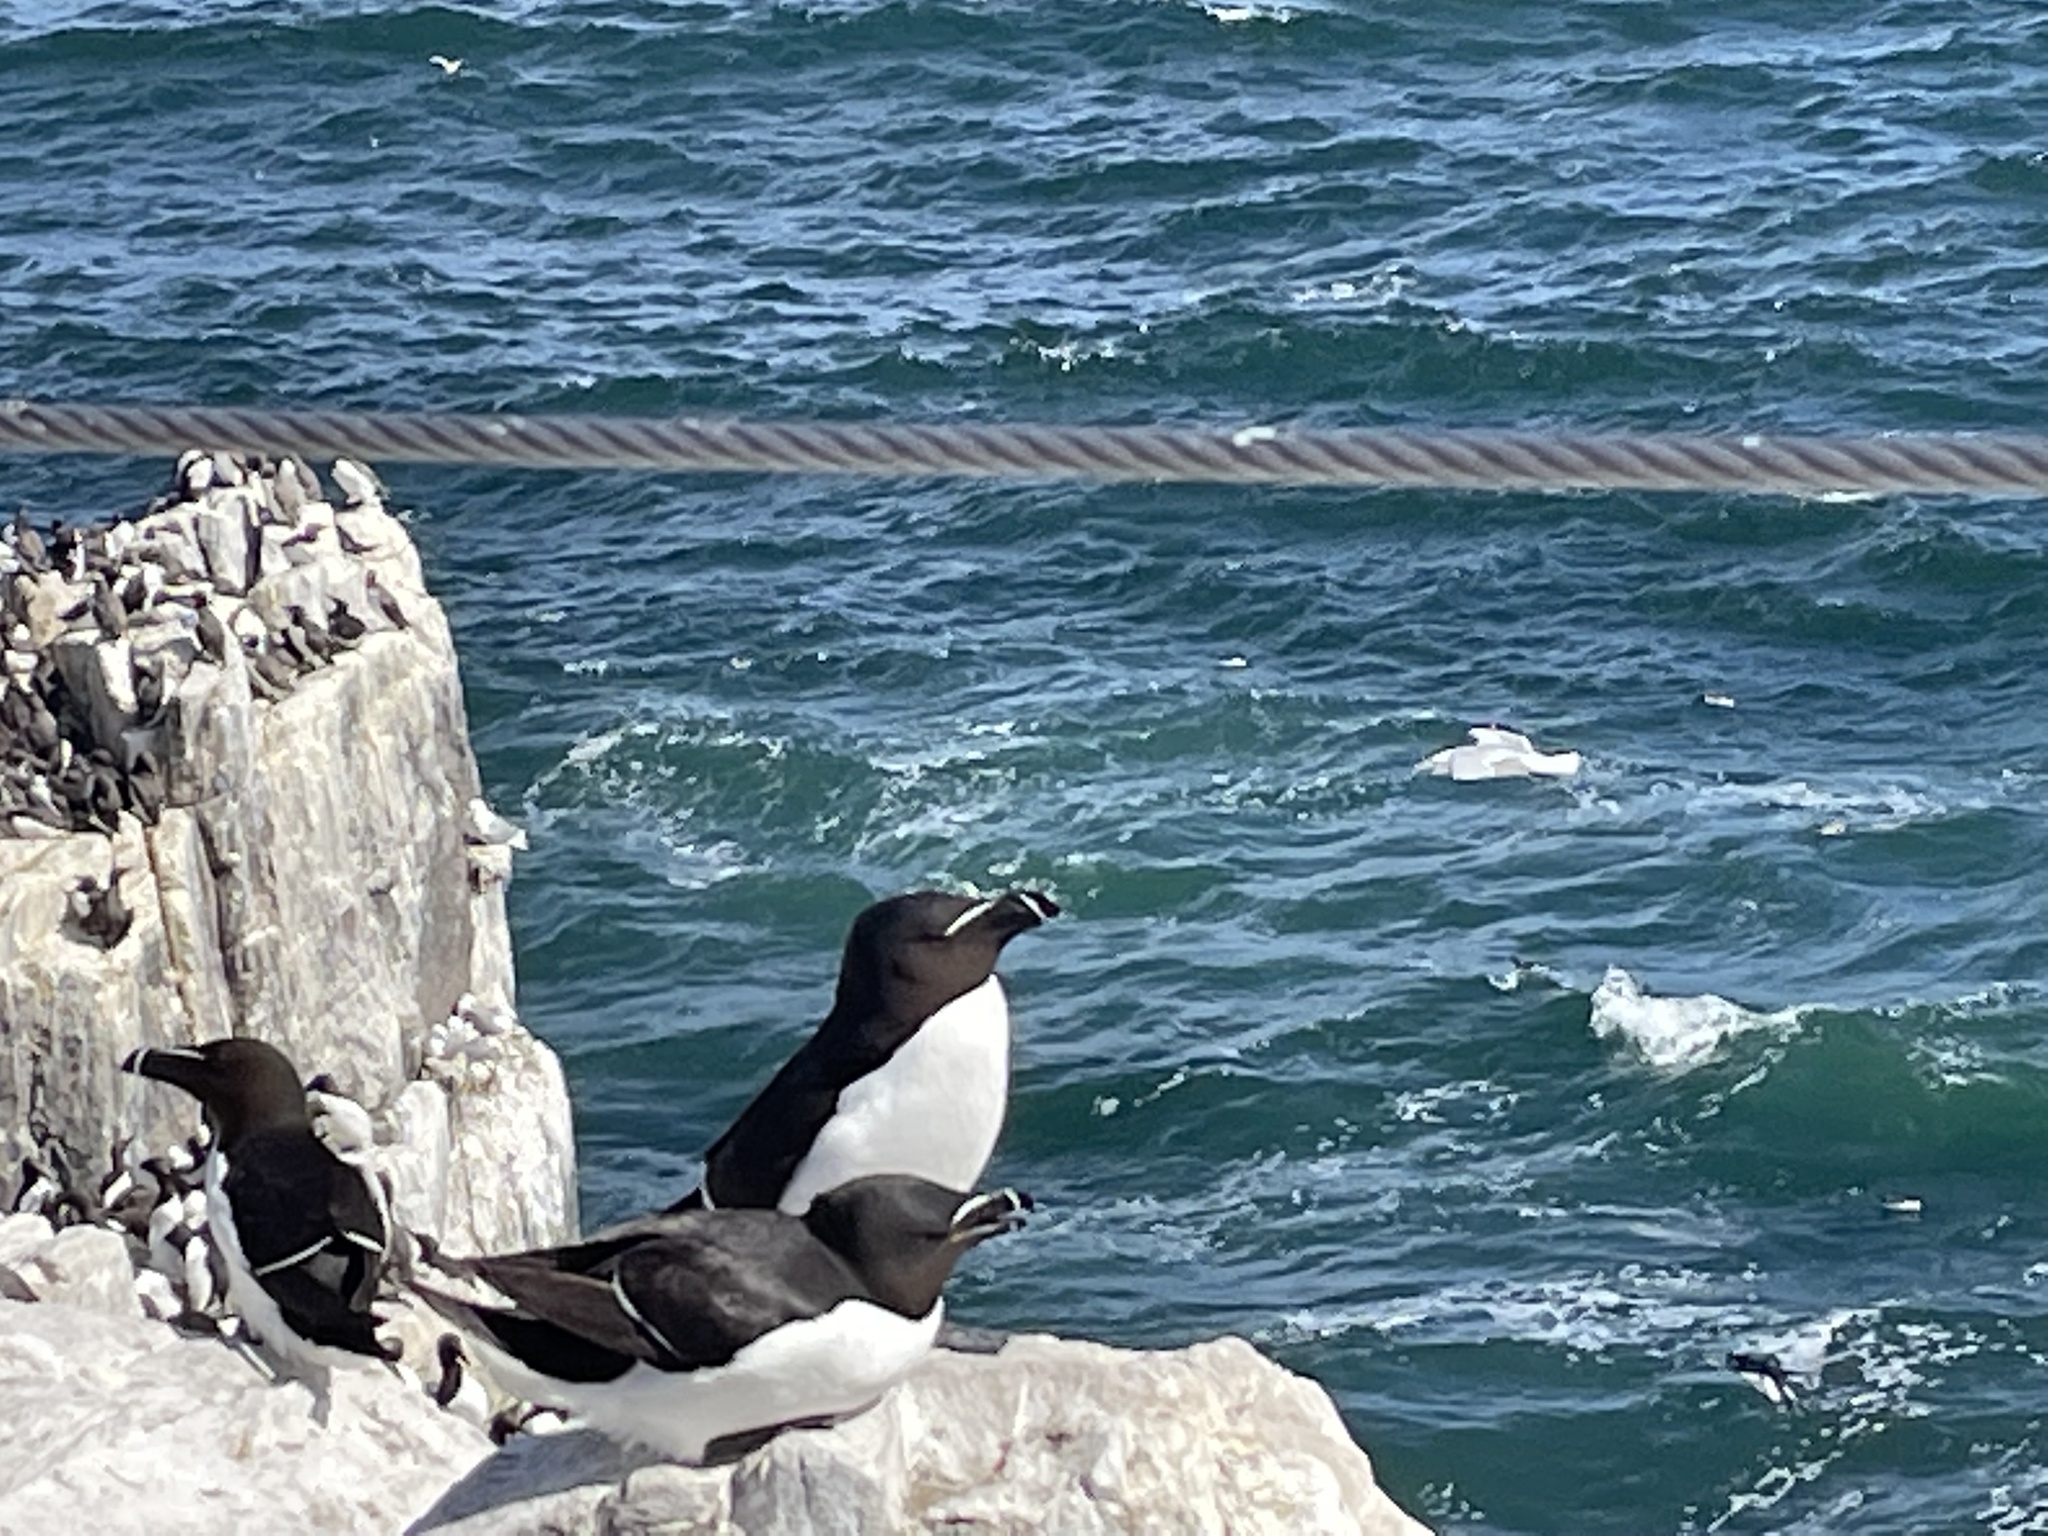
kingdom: Animalia
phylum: Chordata
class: Aves
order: Charadriiformes
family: Alcidae
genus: Alca
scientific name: Alca torda
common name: Razorbill
